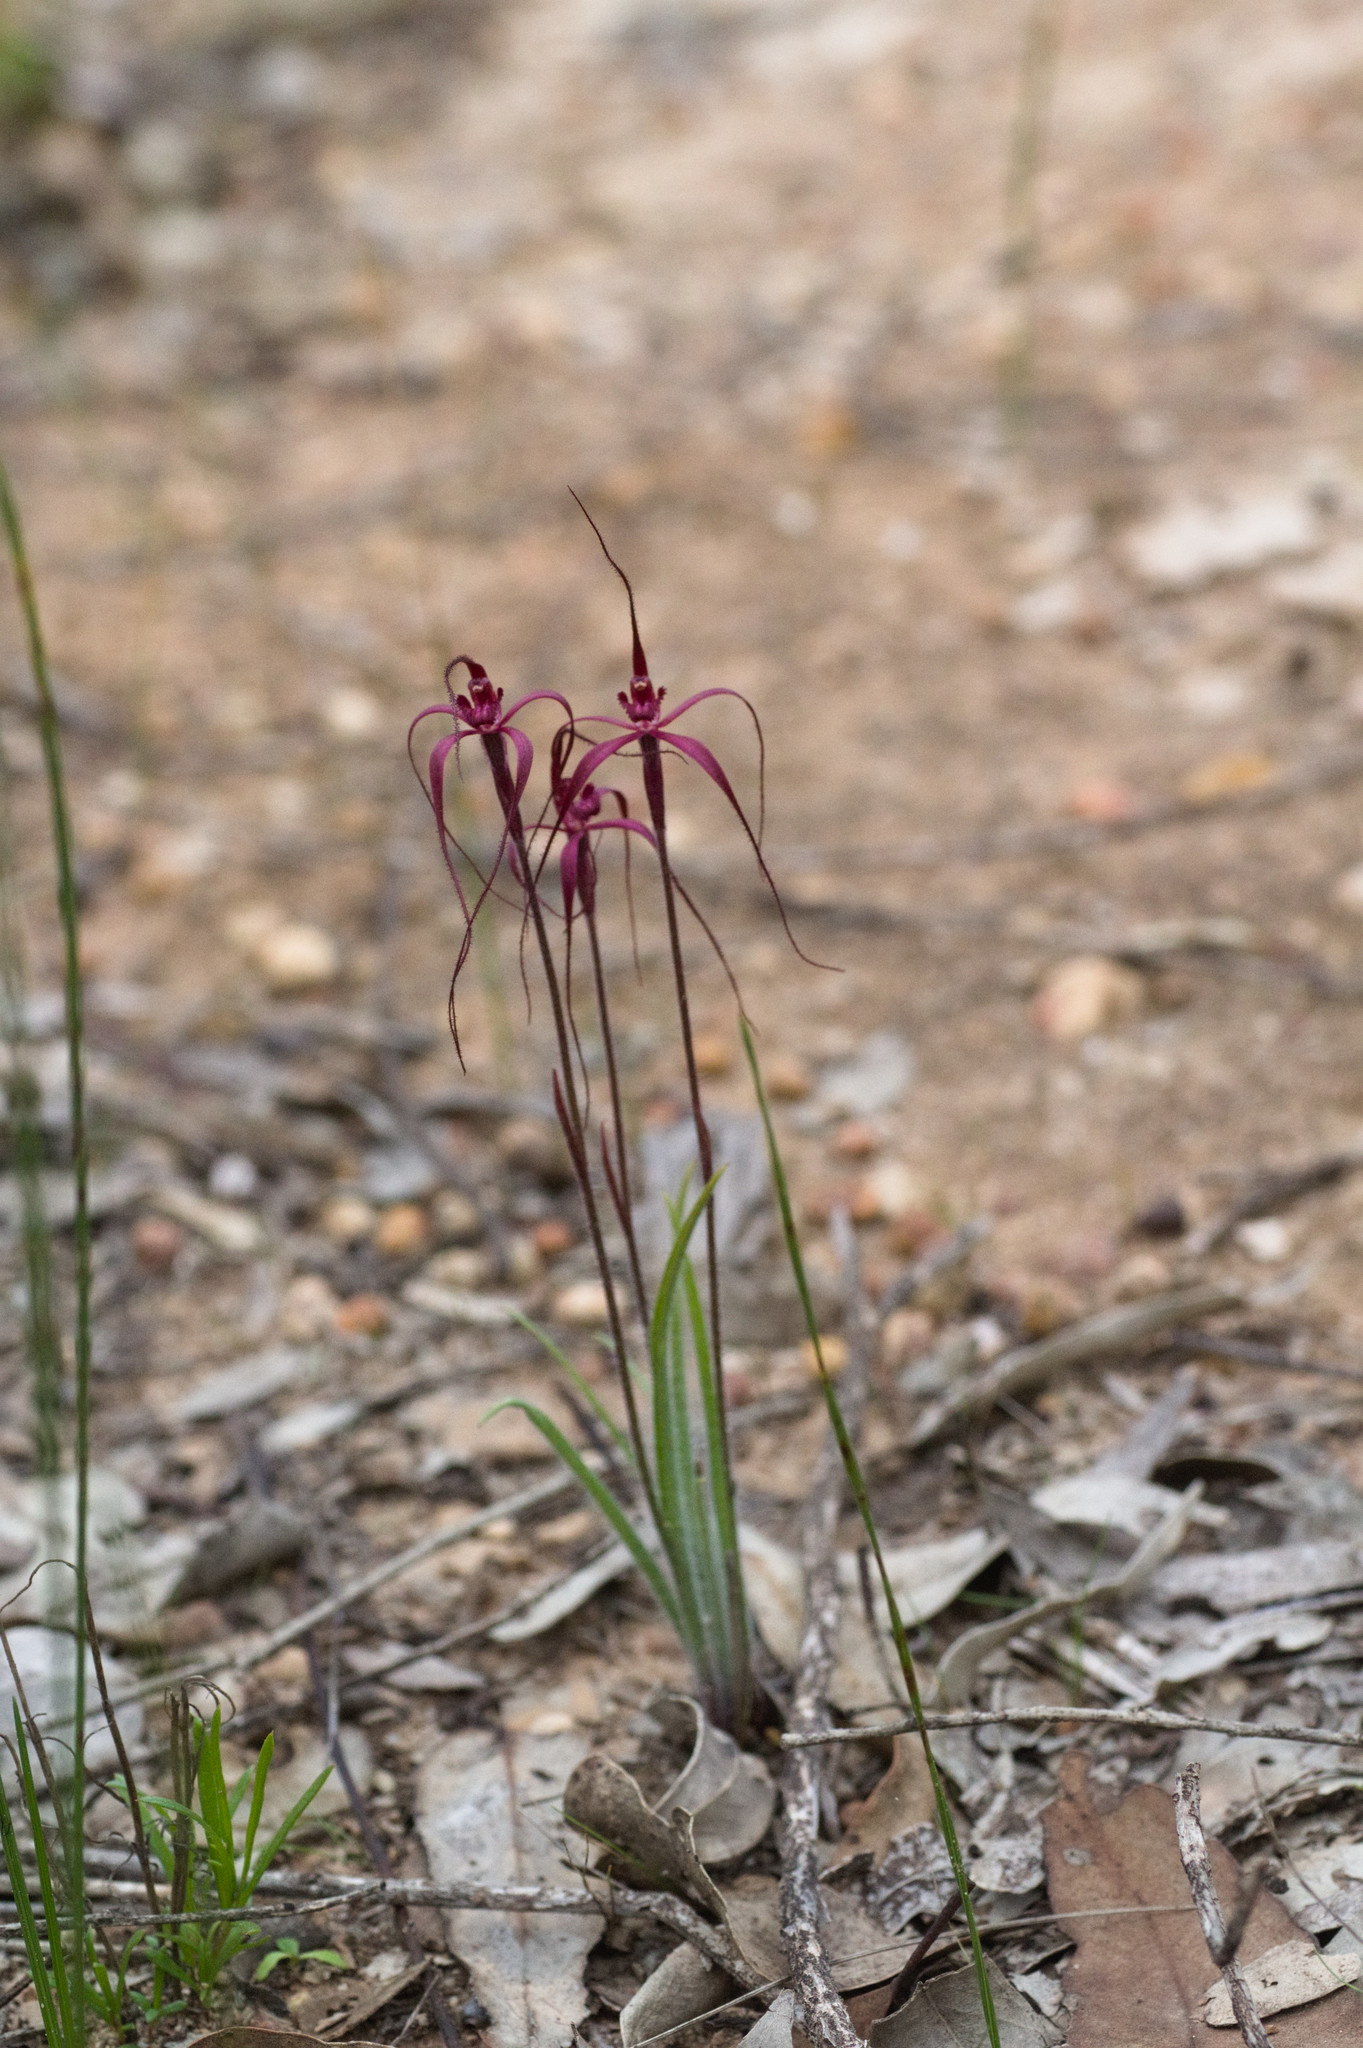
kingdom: Plantae
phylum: Tracheophyta
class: Liliopsida
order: Asparagales
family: Orchidaceae
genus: Caladenia
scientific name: Caladenia filifera
